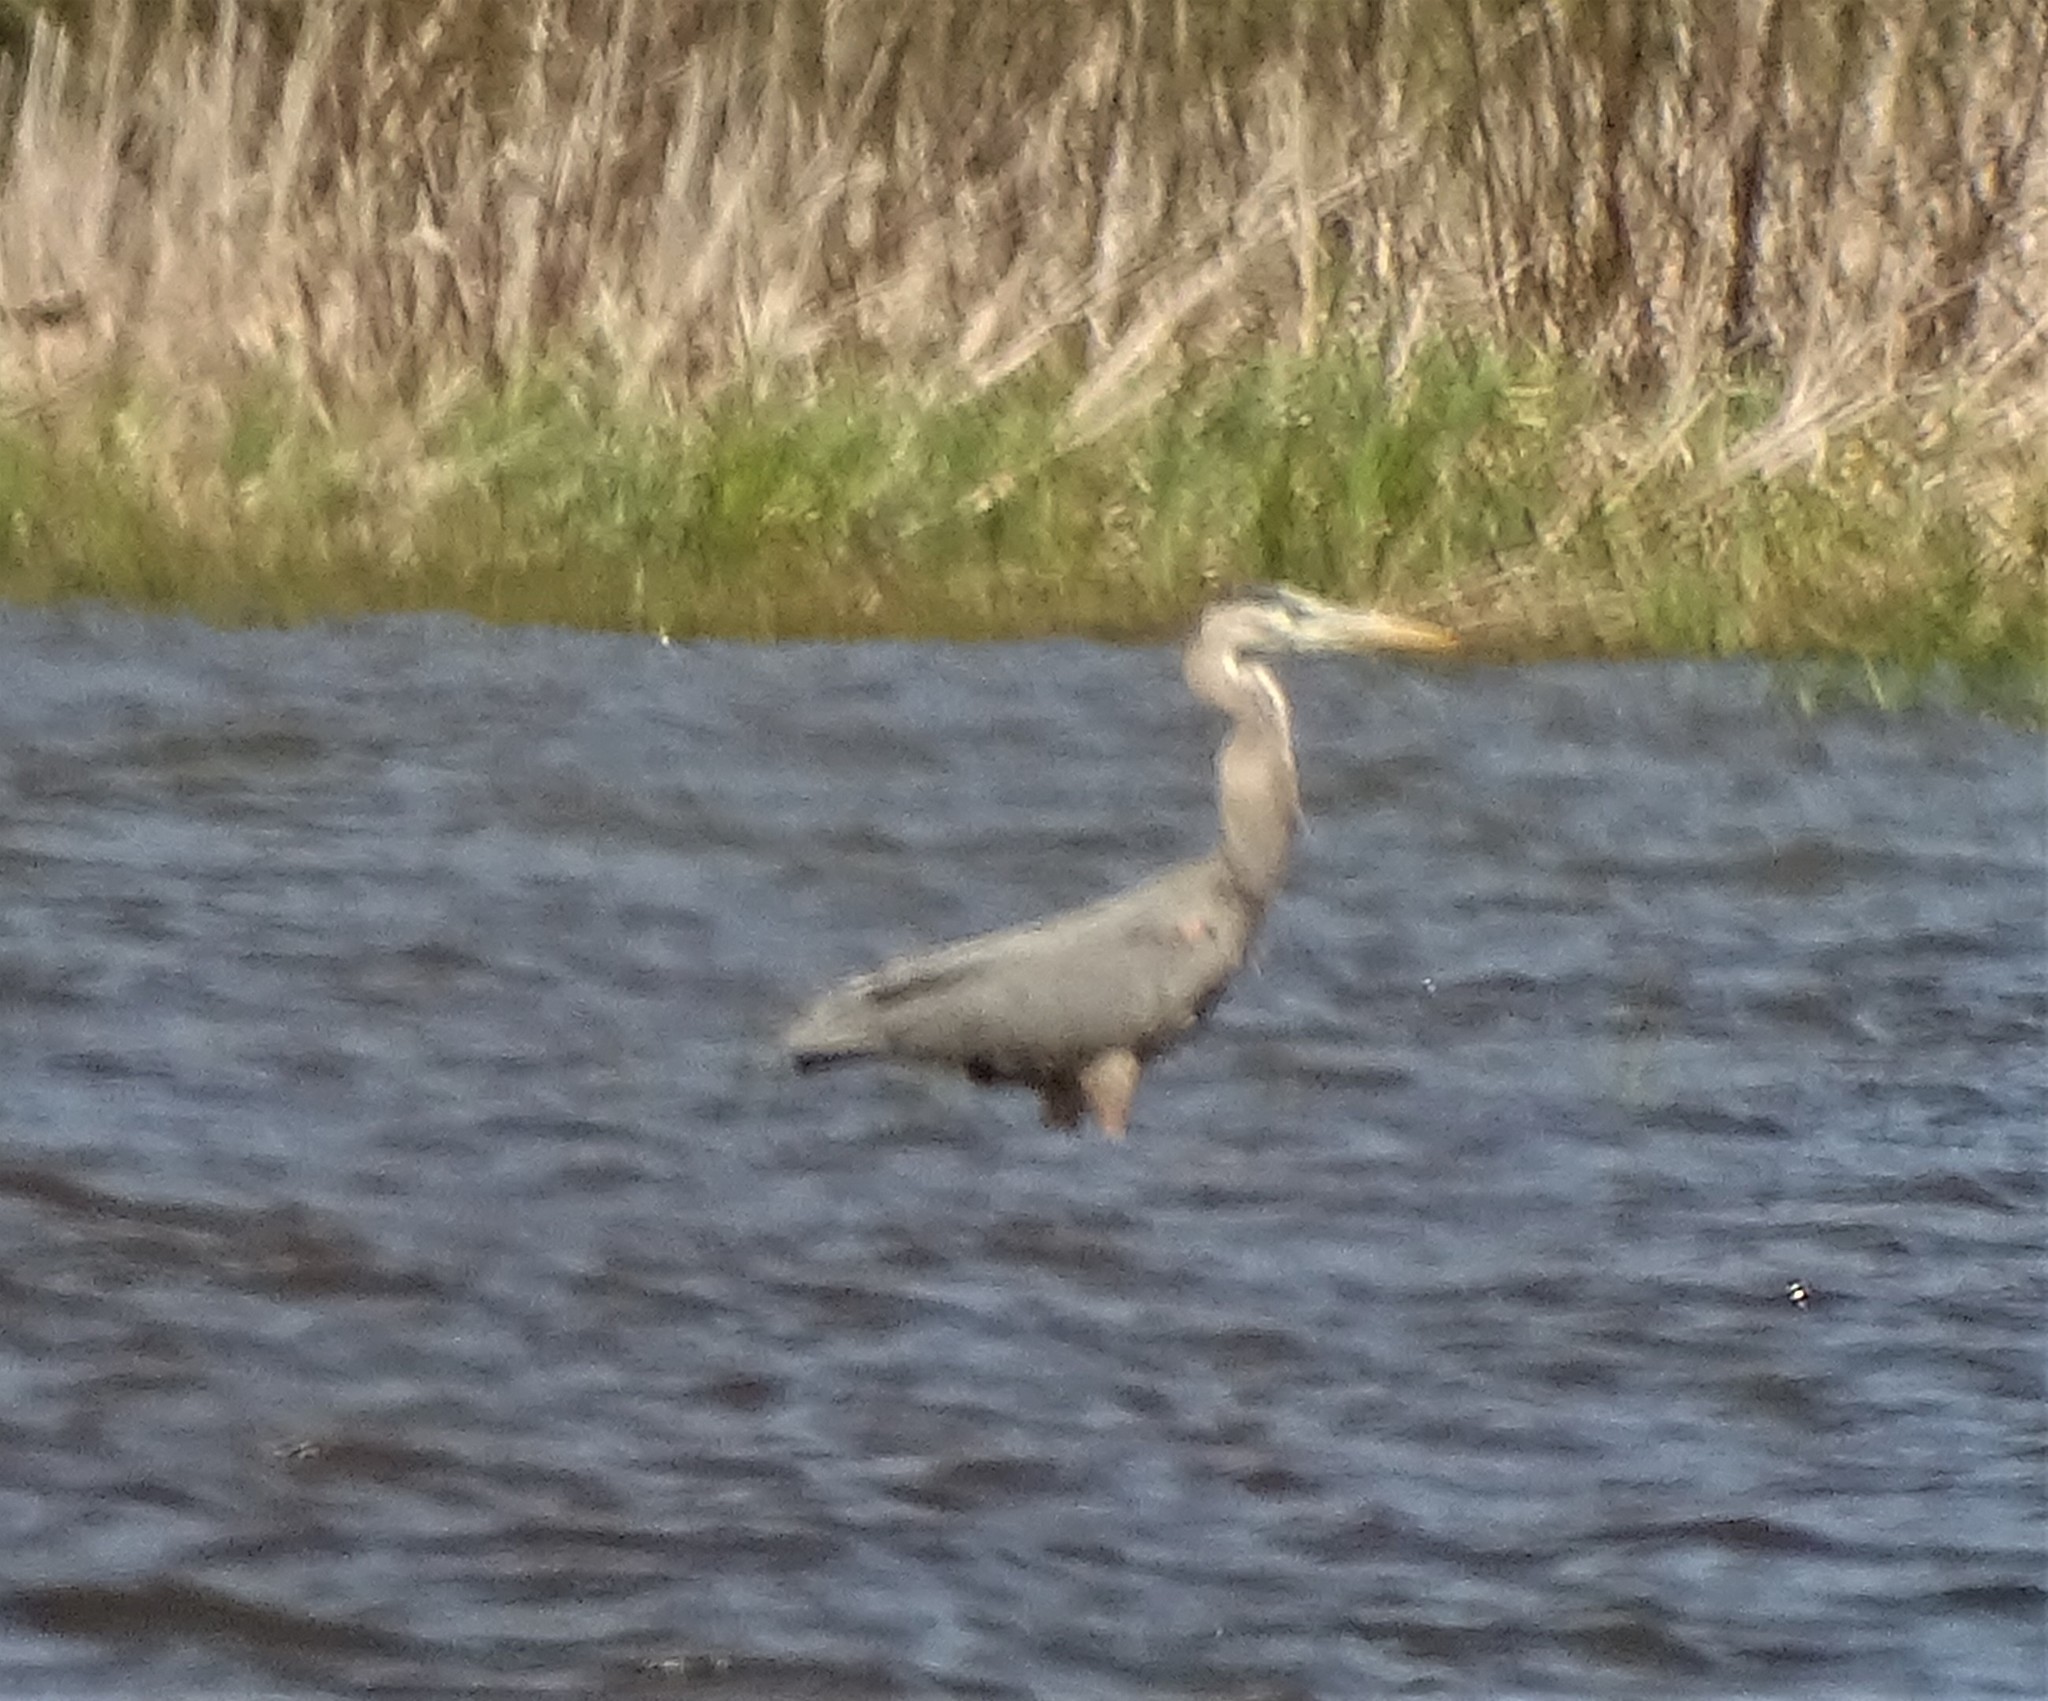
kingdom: Animalia
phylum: Chordata
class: Aves
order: Pelecaniformes
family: Ardeidae
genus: Ardea
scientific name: Ardea herodias
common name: Great blue heron
